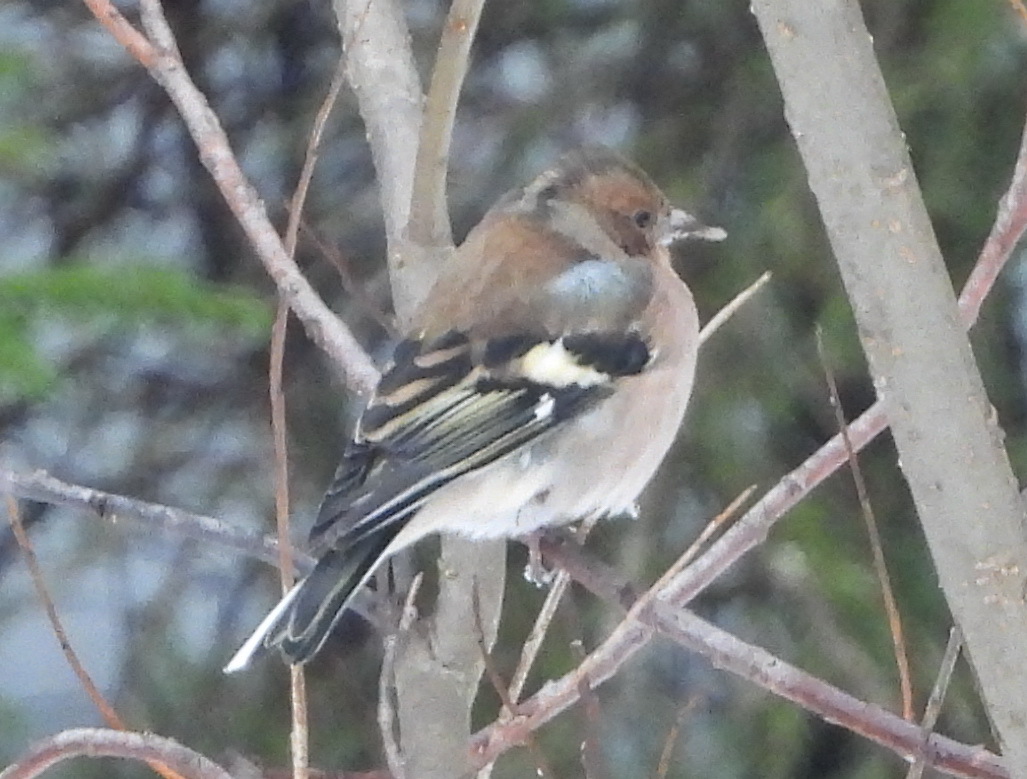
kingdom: Animalia
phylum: Chordata
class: Aves
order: Passeriformes
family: Fringillidae
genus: Fringilla
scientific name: Fringilla coelebs
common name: Common chaffinch
